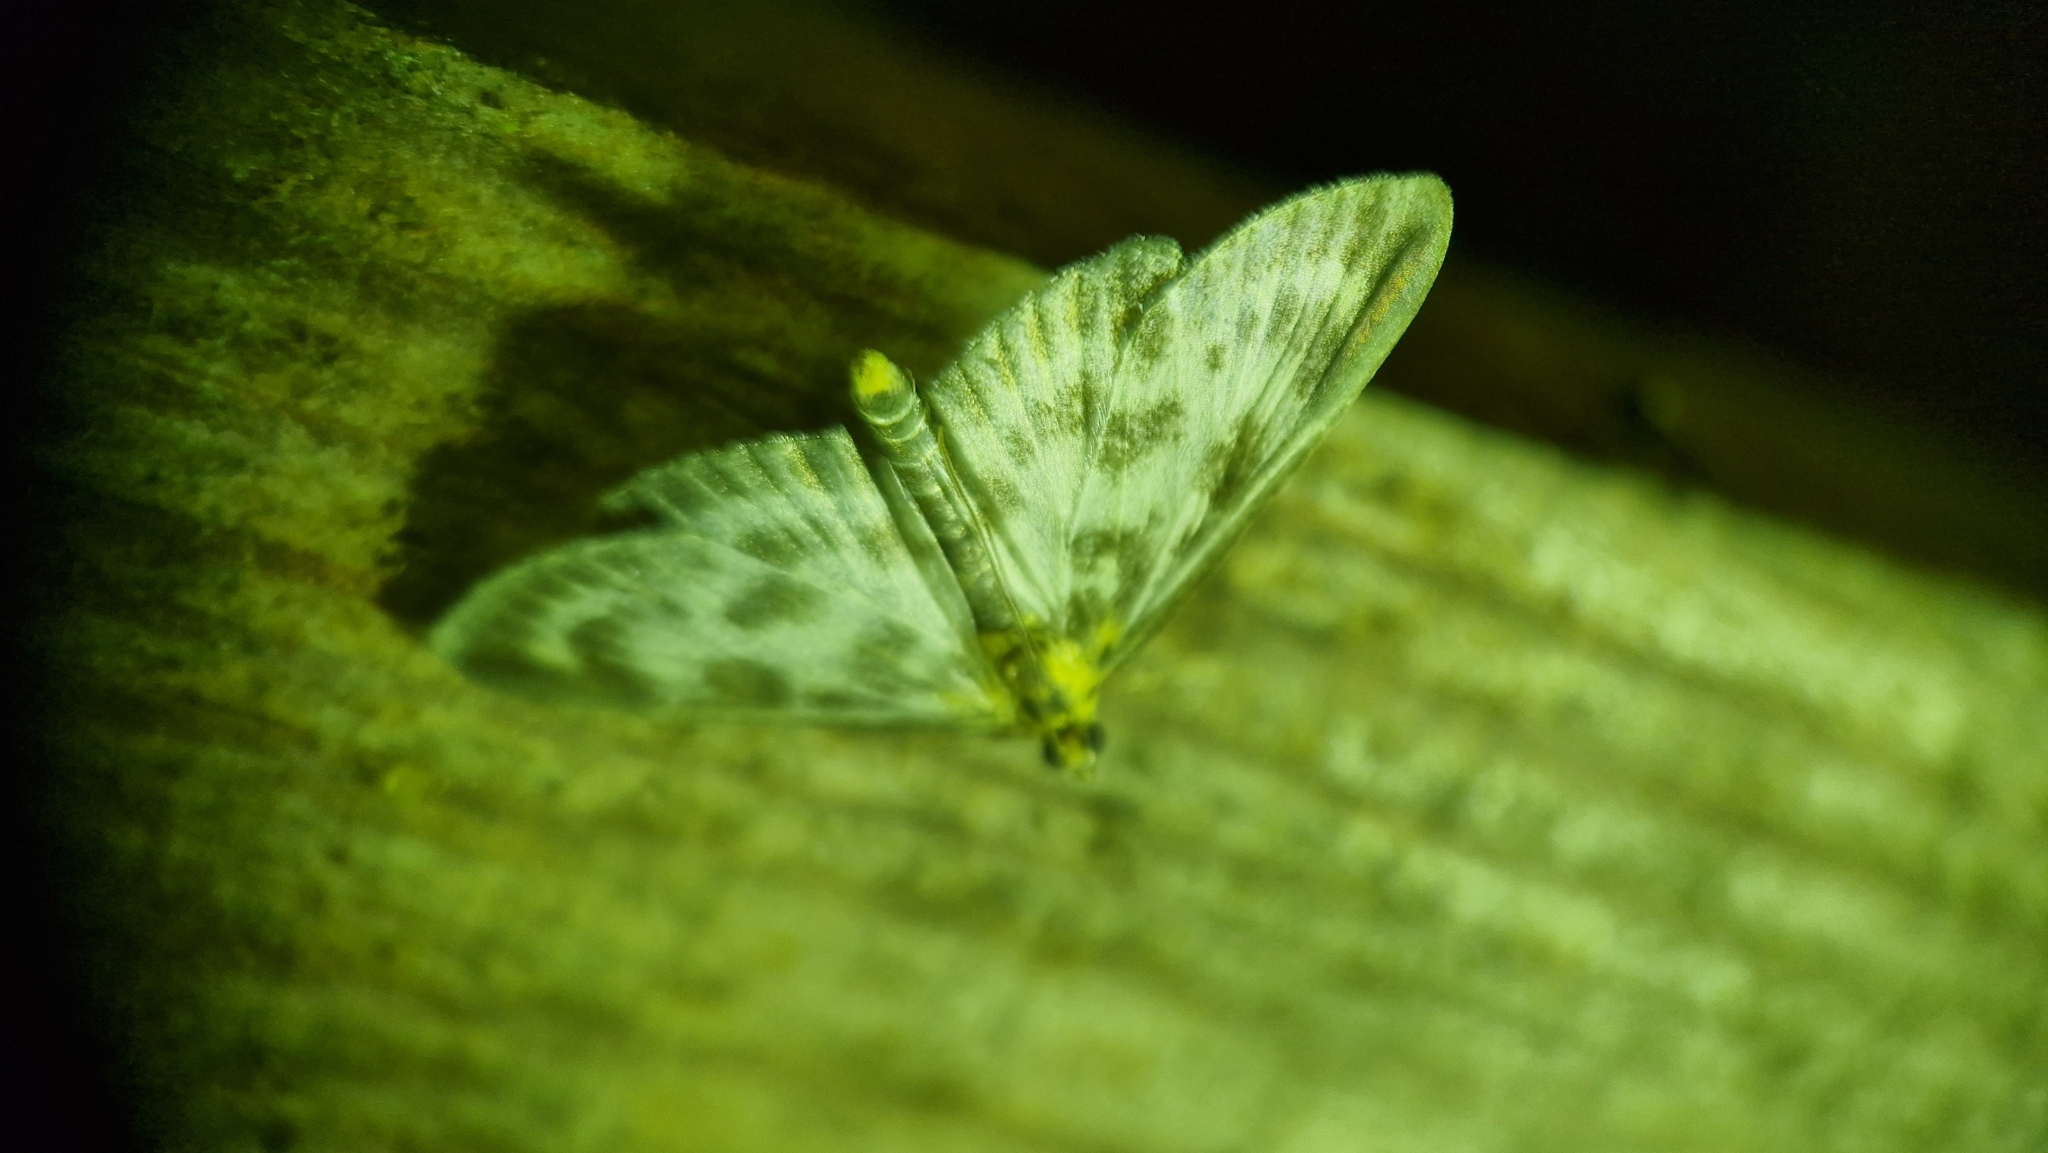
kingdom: Animalia
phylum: Arthropoda
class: Insecta
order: Lepidoptera
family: Crambidae
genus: Anania
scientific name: Anania hortulata
